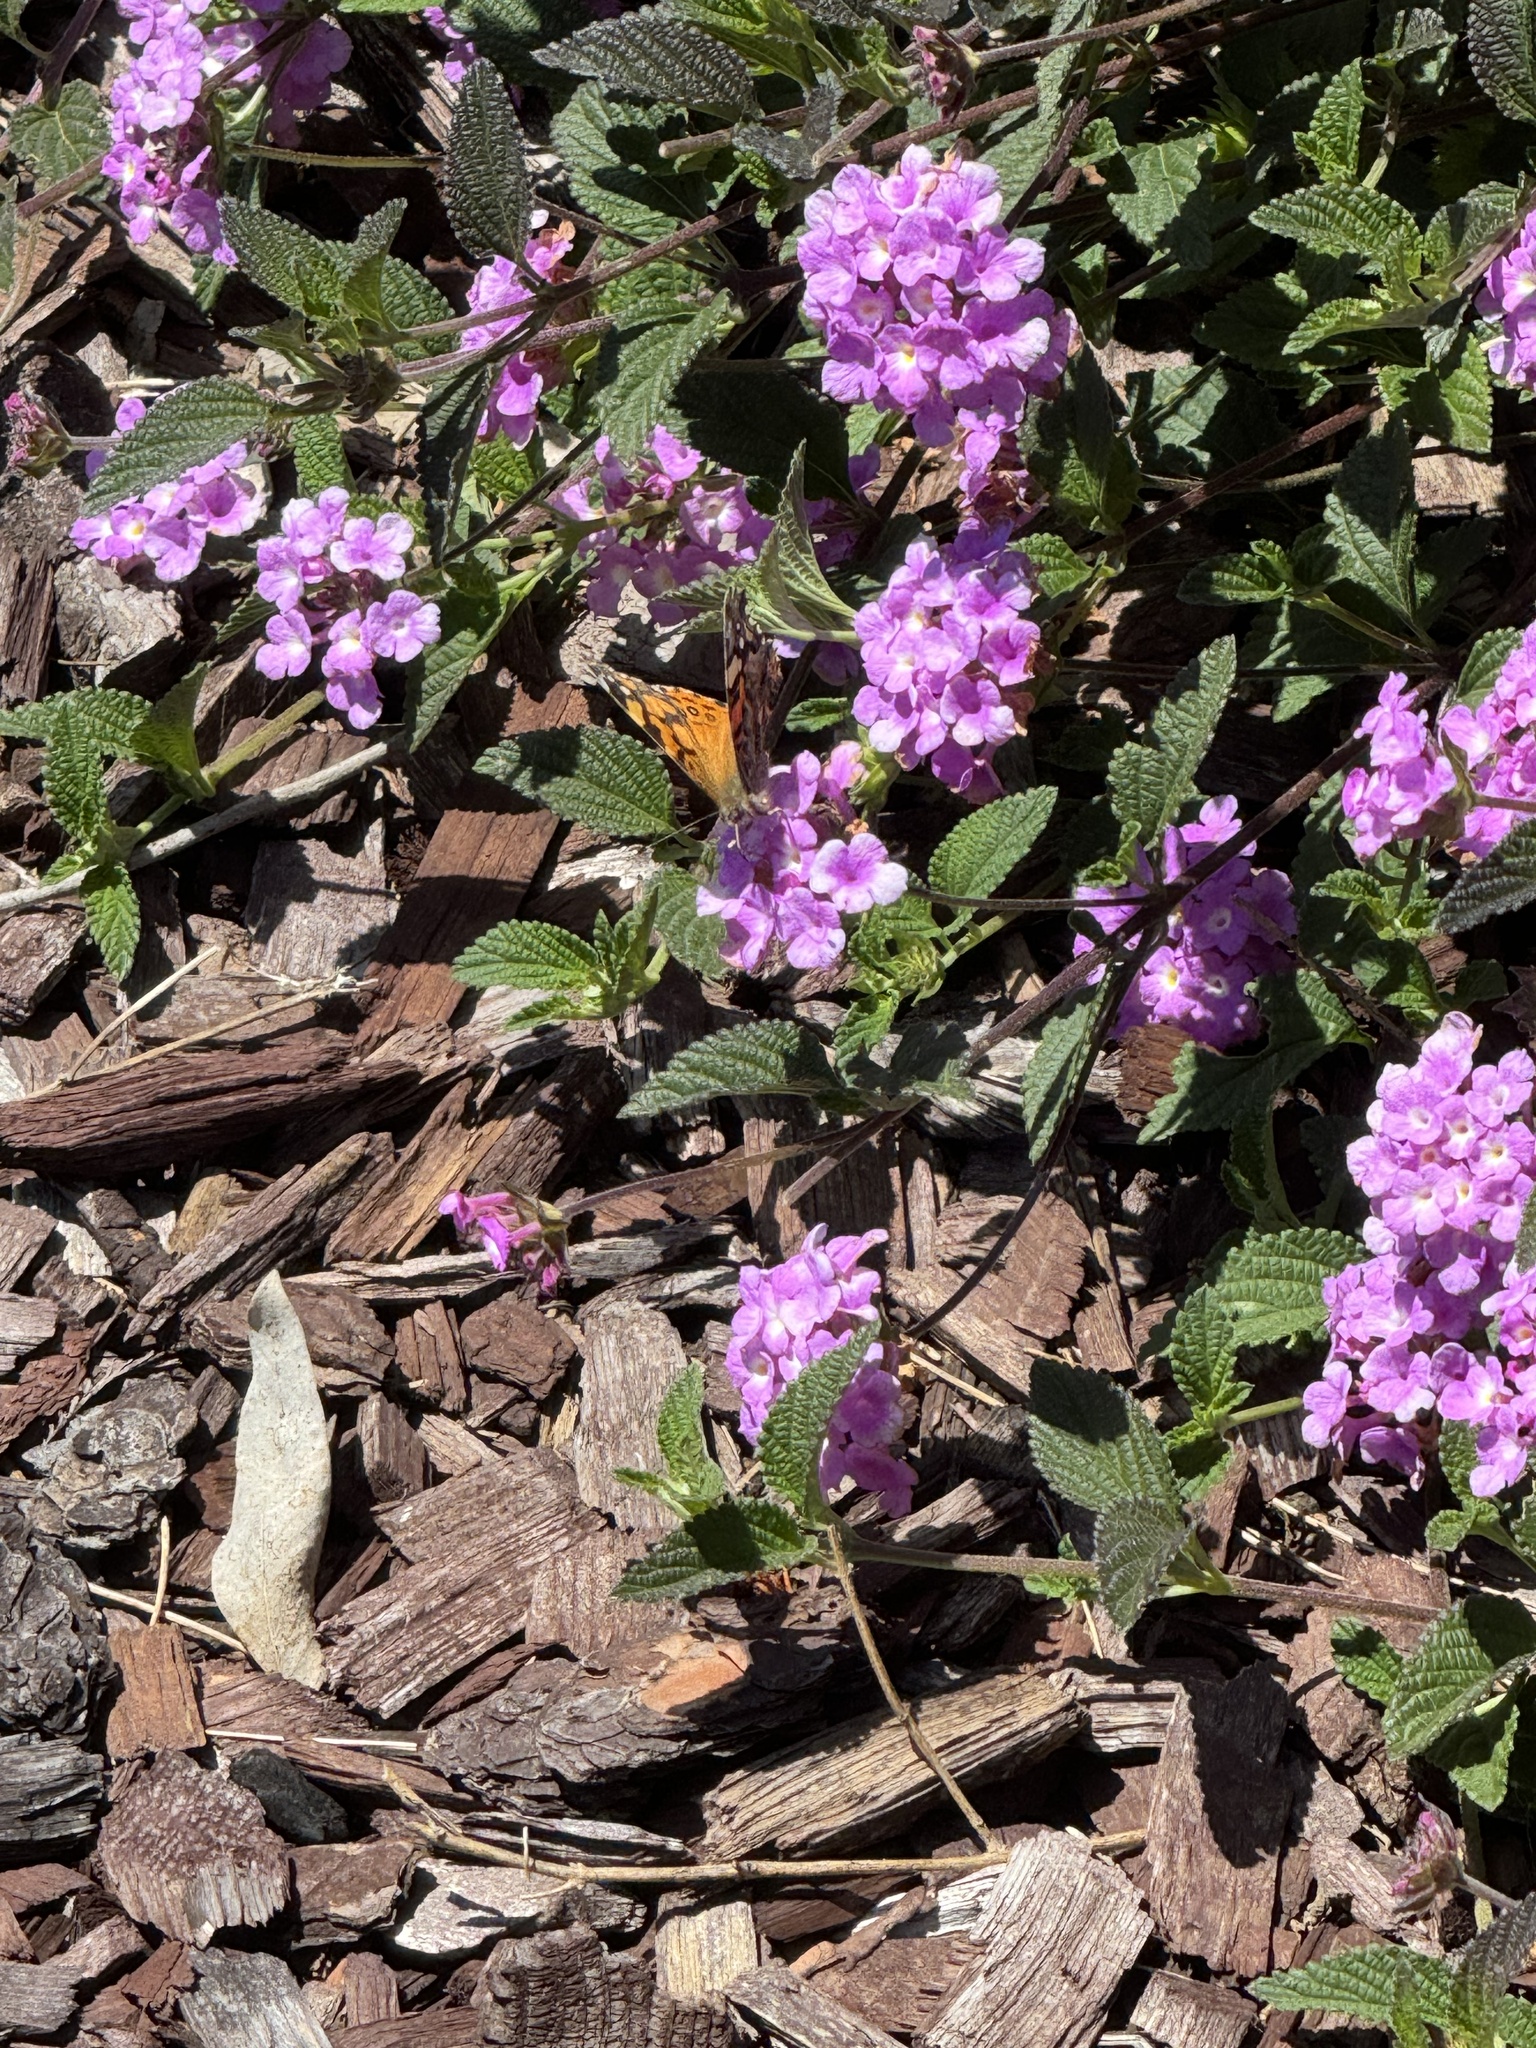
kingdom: Animalia
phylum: Arthropoda
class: Insecta
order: Lepidoptera
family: Nymphalidae
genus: Vanessa
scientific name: Vanessa annabella
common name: West coast lady
